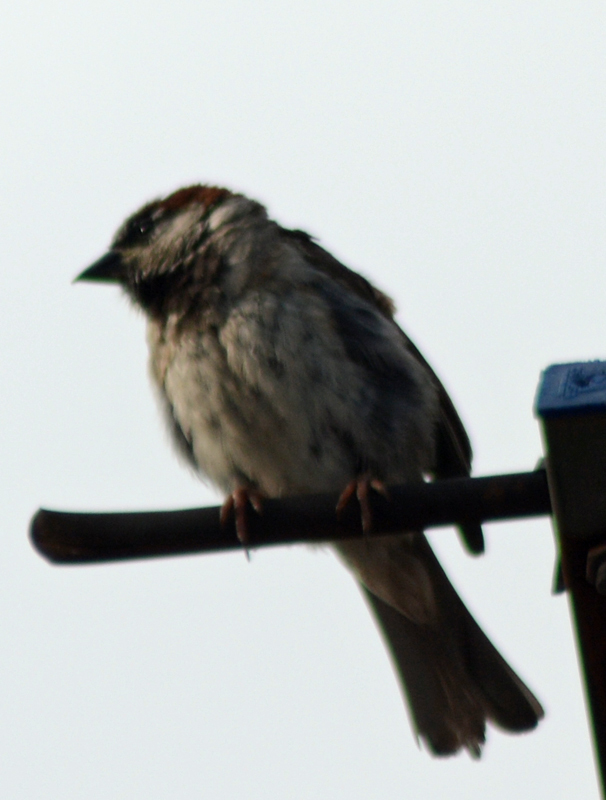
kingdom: Animalia
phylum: Chordata
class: Aves
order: Passeriformes
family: Passeridae
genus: Passer
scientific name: Passer domesticus
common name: House sparrow
